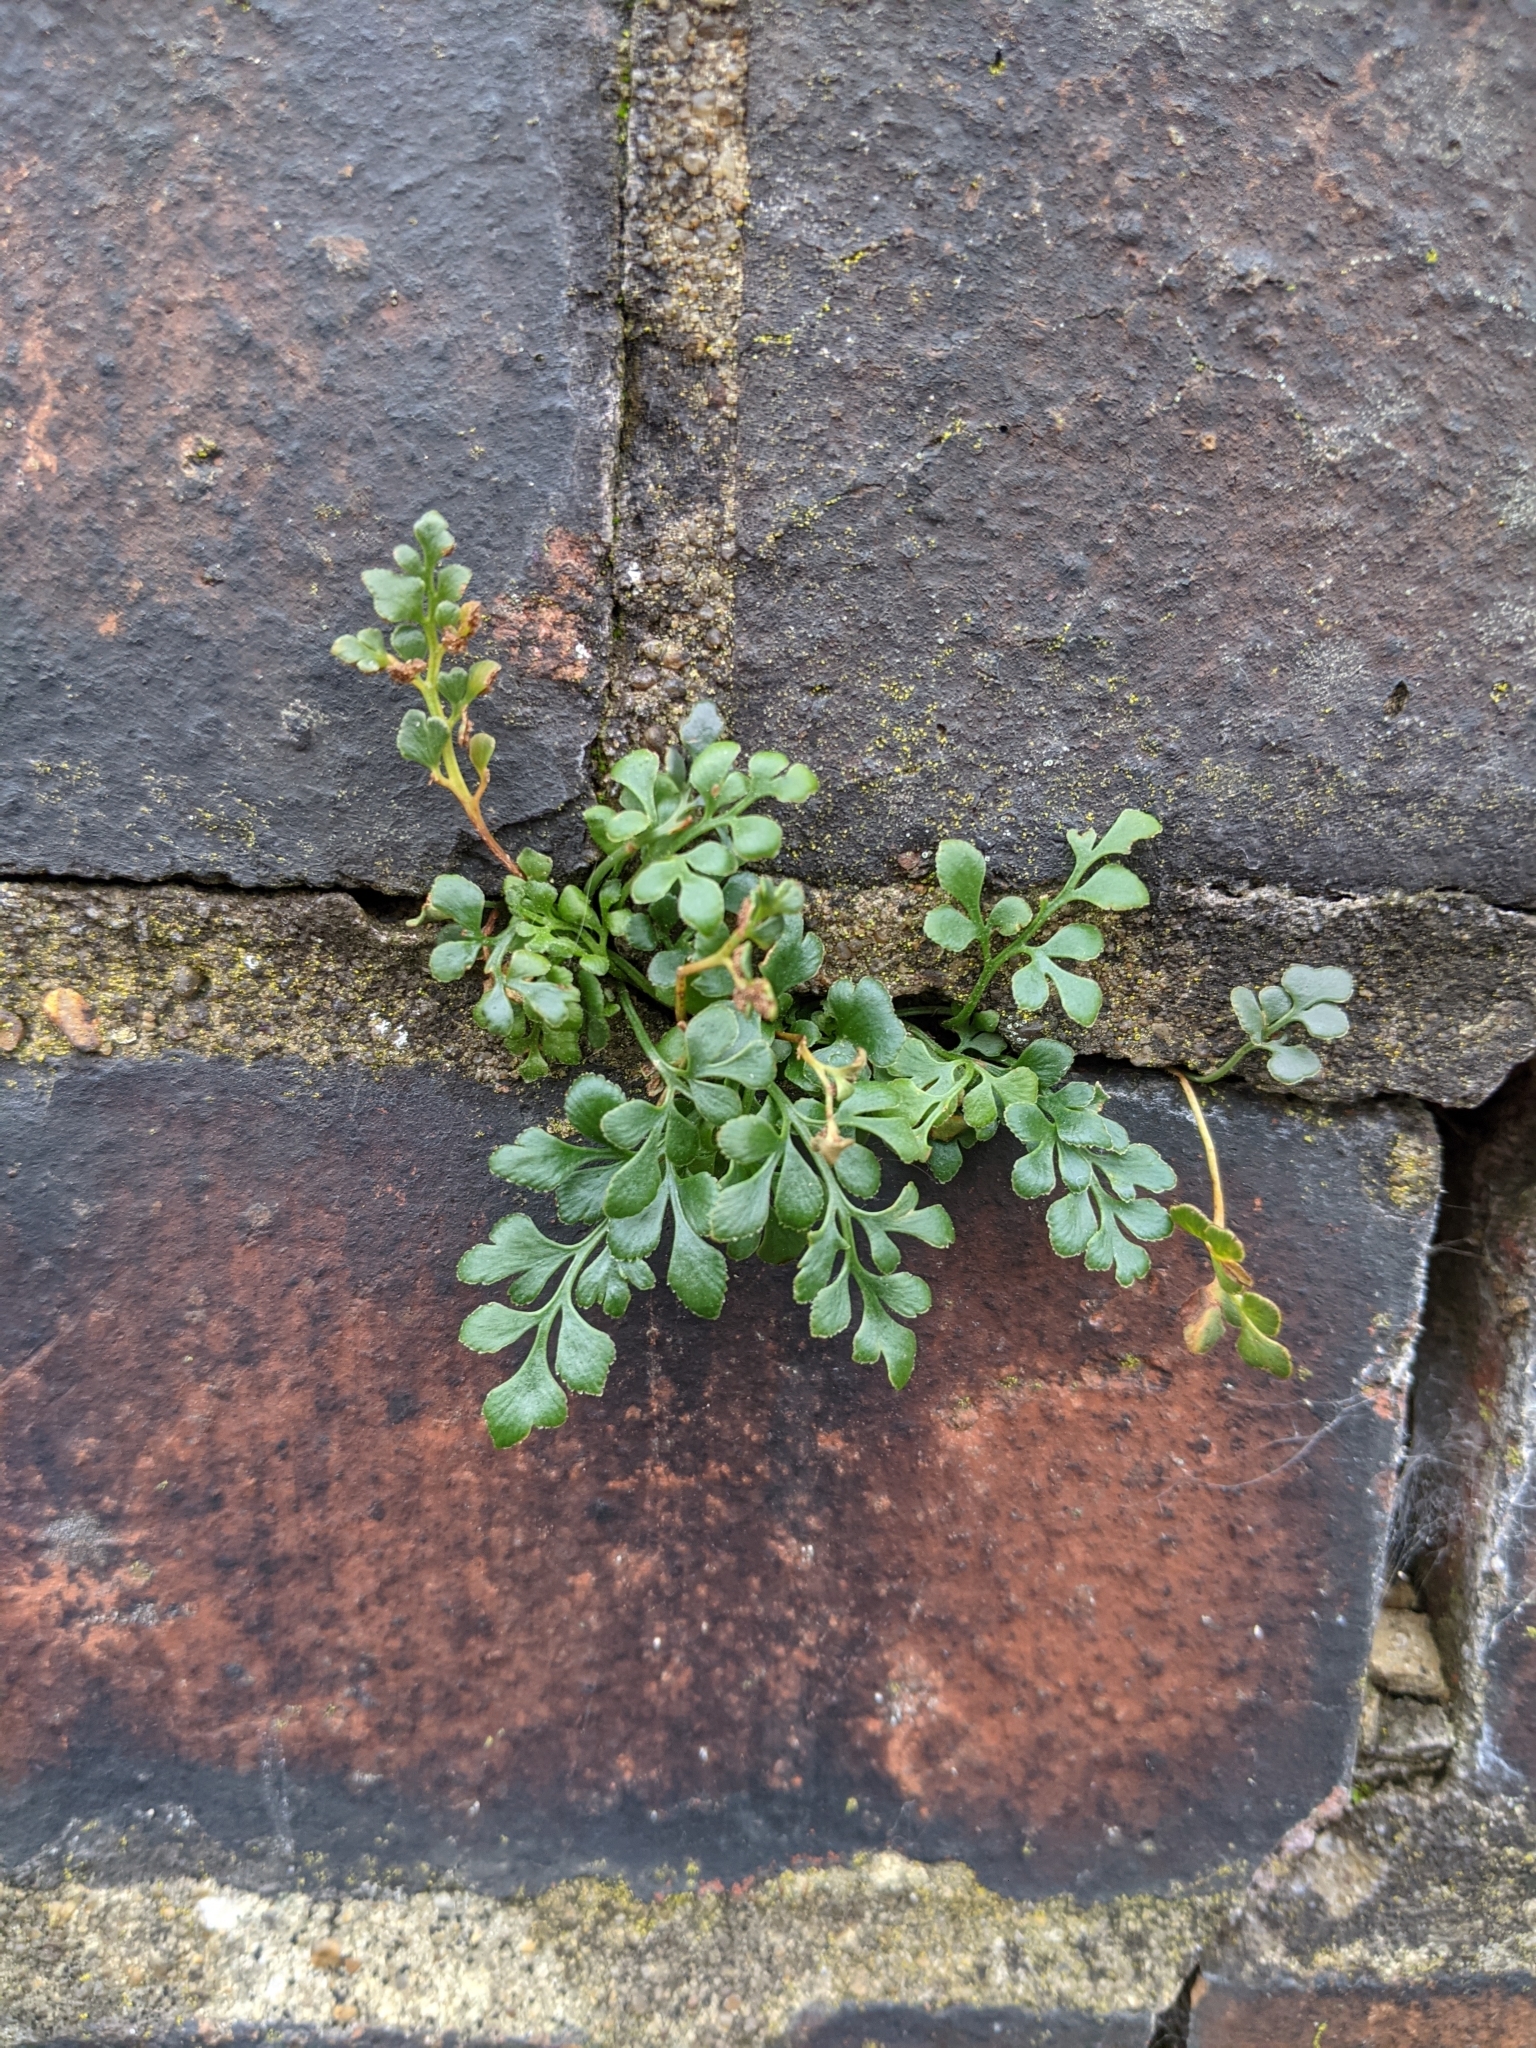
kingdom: Plantae
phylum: Tracheophyta
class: Polypodiopsida
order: Polypodiales
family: Aspleniaceae
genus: Asplenium
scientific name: Asplenium ruta-muraria
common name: Wall-rue
